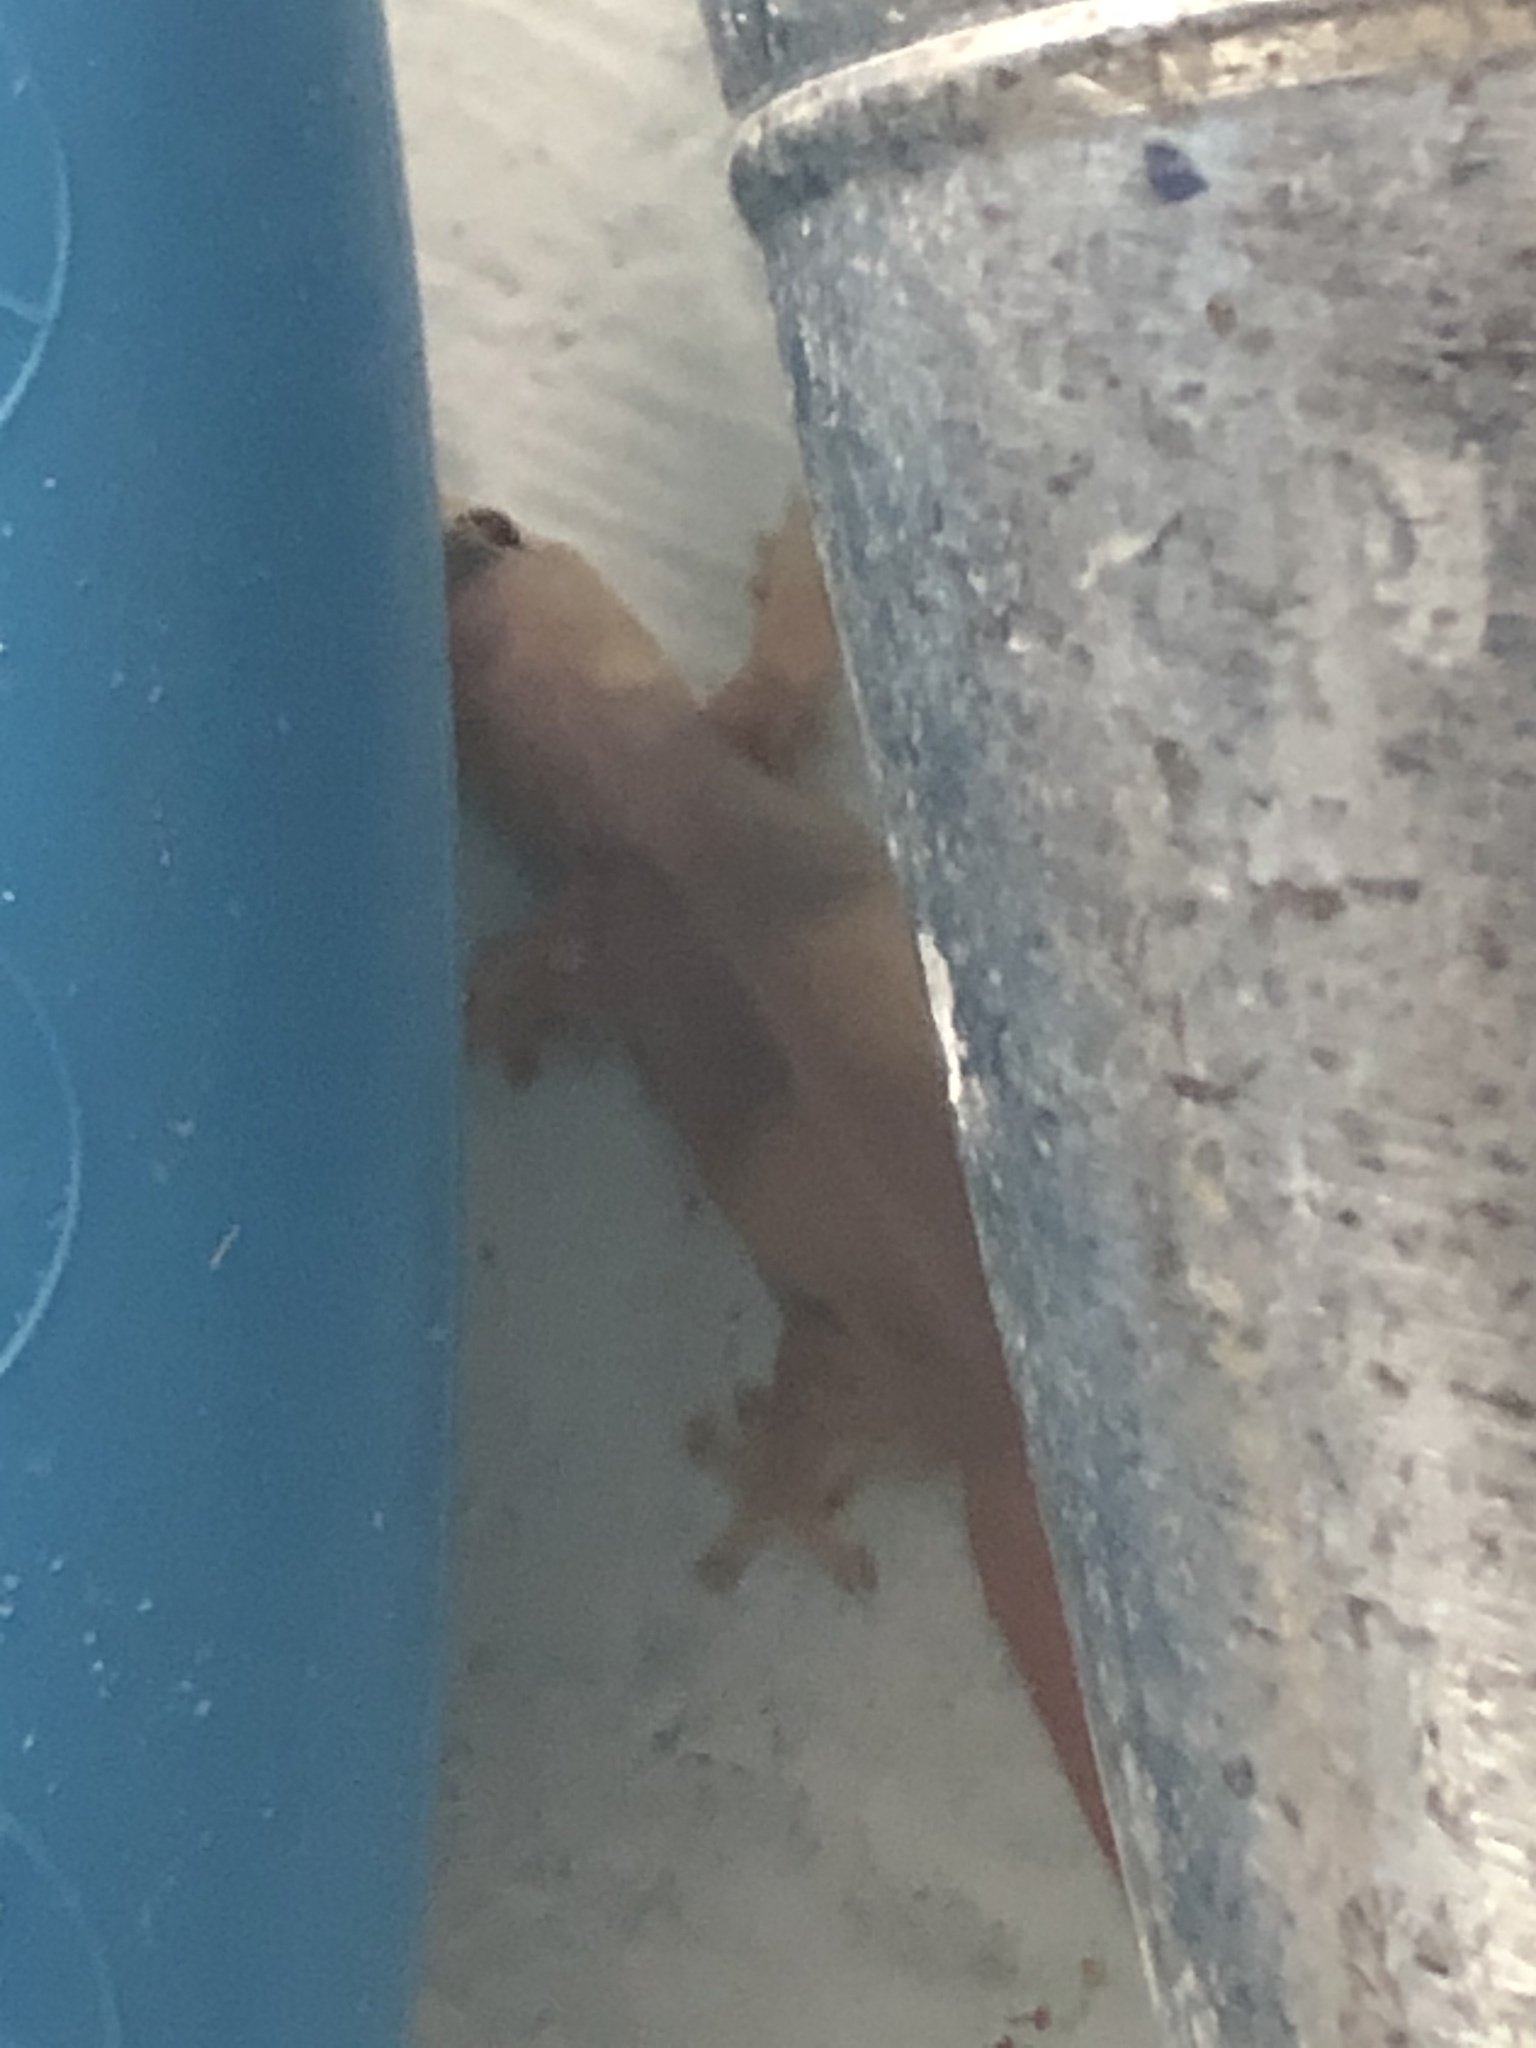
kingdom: Animalia
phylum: Chordata
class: Squamata
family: Gekkonidae
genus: Gehyra
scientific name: Gehyra mutilata
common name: Stump-toed gecko
